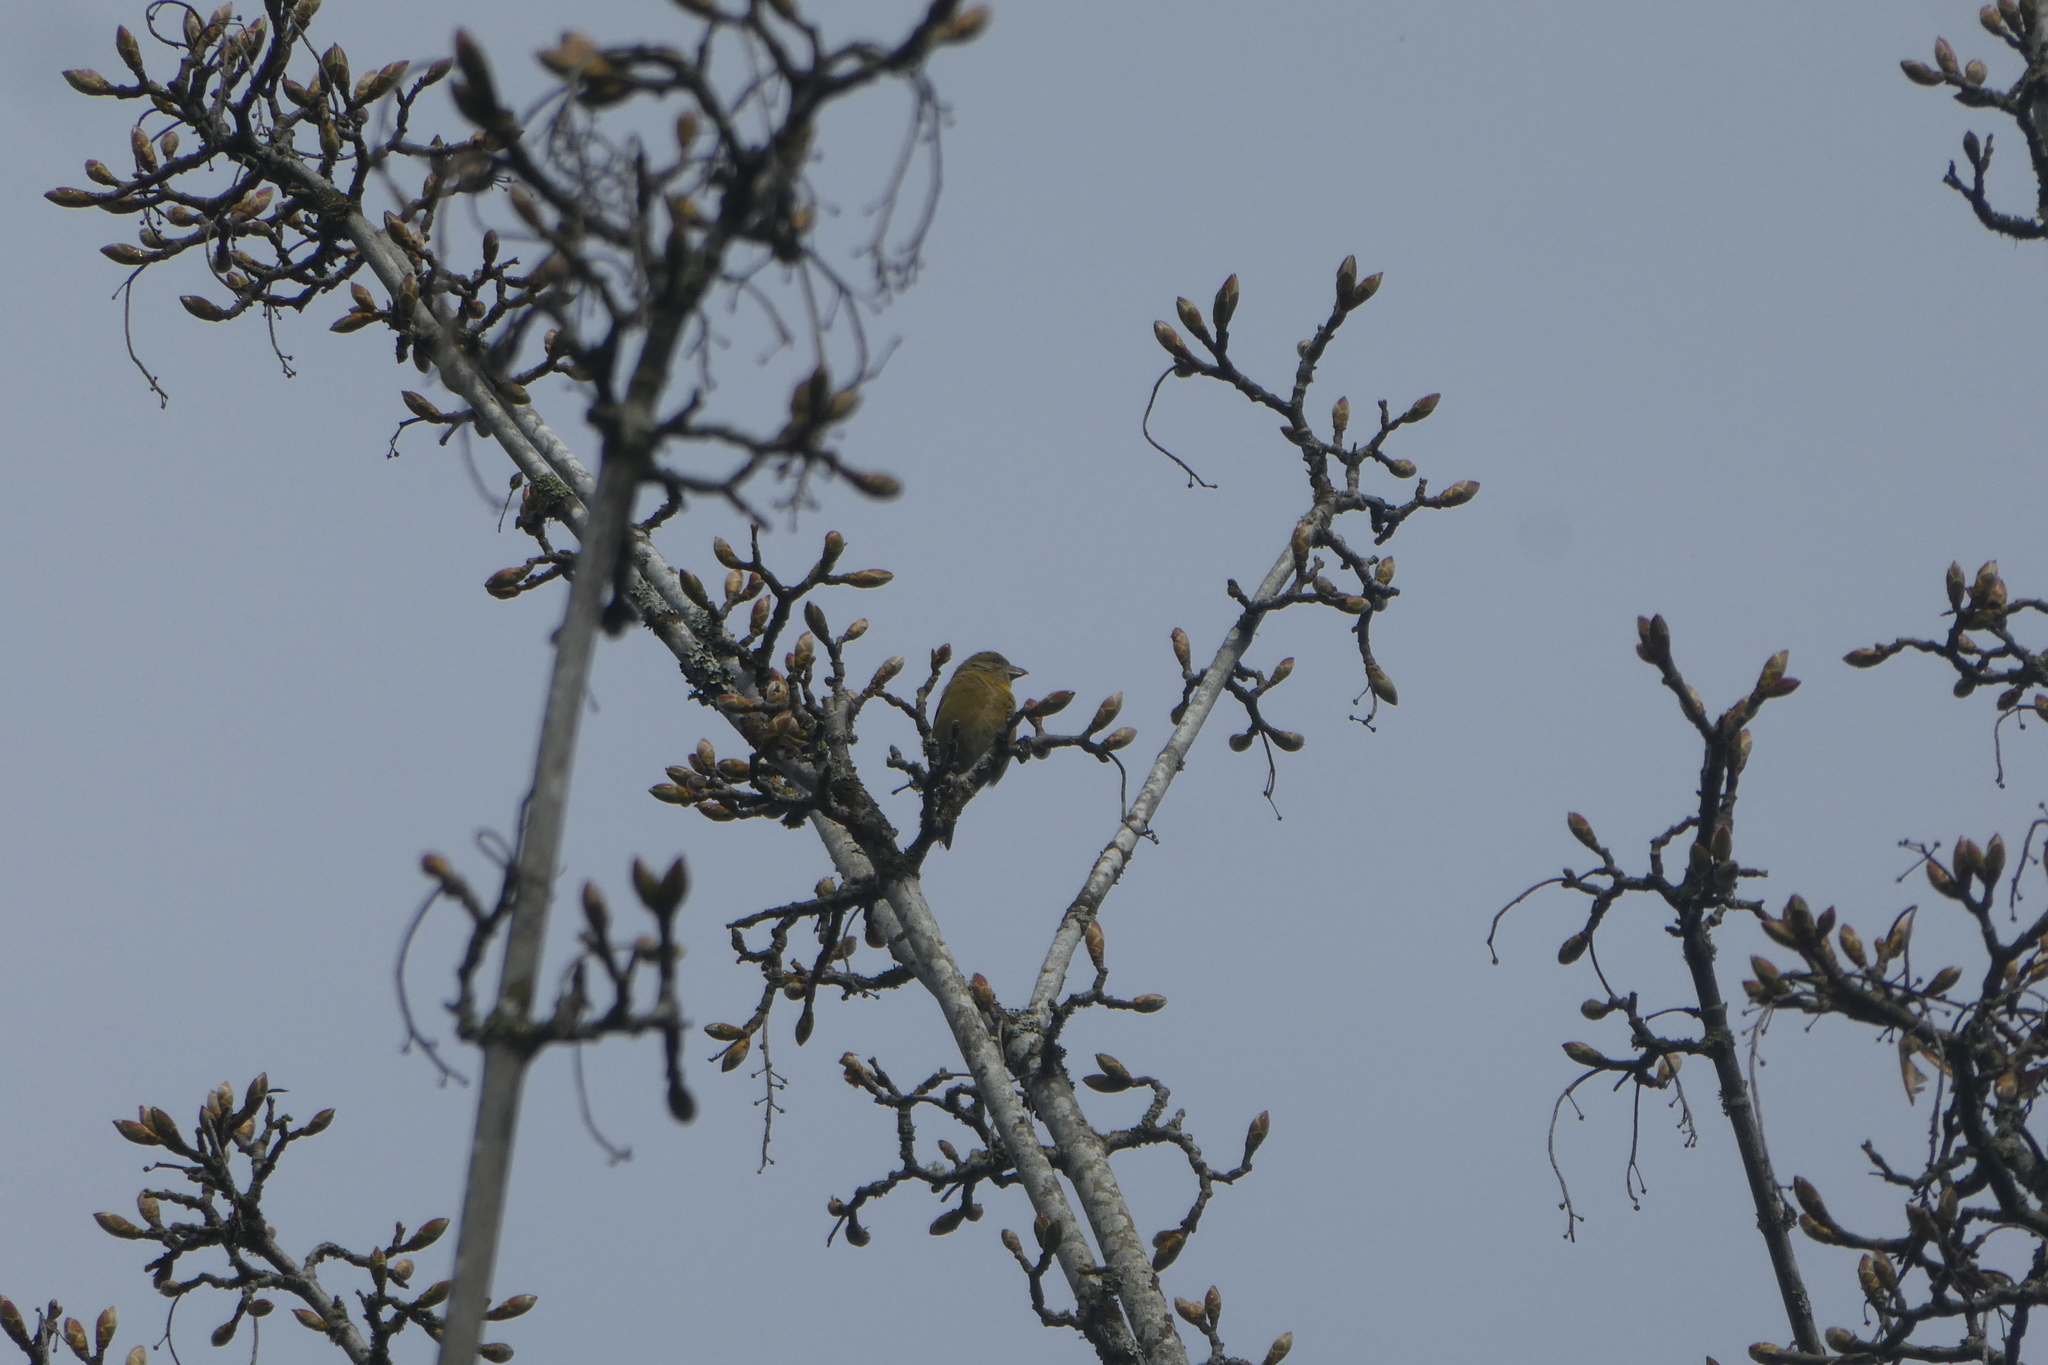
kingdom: Animalia
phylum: Chordata
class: Aves
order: Passeriformes
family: Fringillidae
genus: Loxia
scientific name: Loxia curvirostra
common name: Red crossbill
